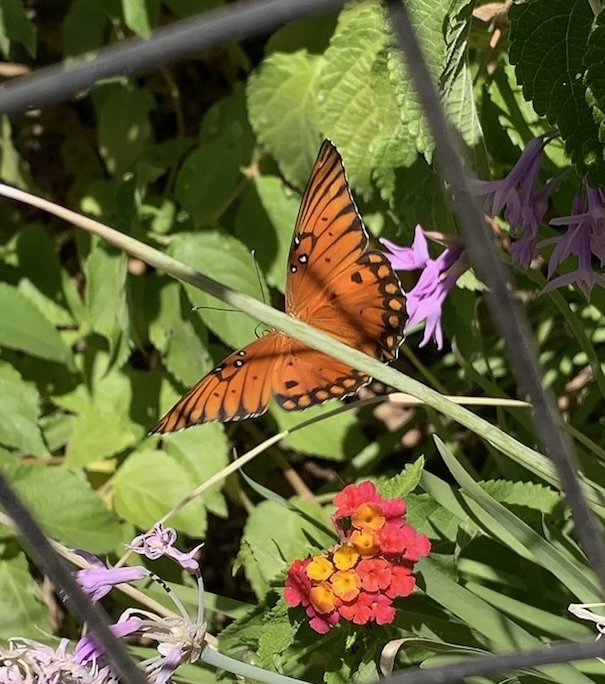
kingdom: Animalia
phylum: Arthropoda
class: Insecta
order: Lepidoptera
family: Nymphalidae
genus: Dione
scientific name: Dione vanillae
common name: Gulf fritillary
